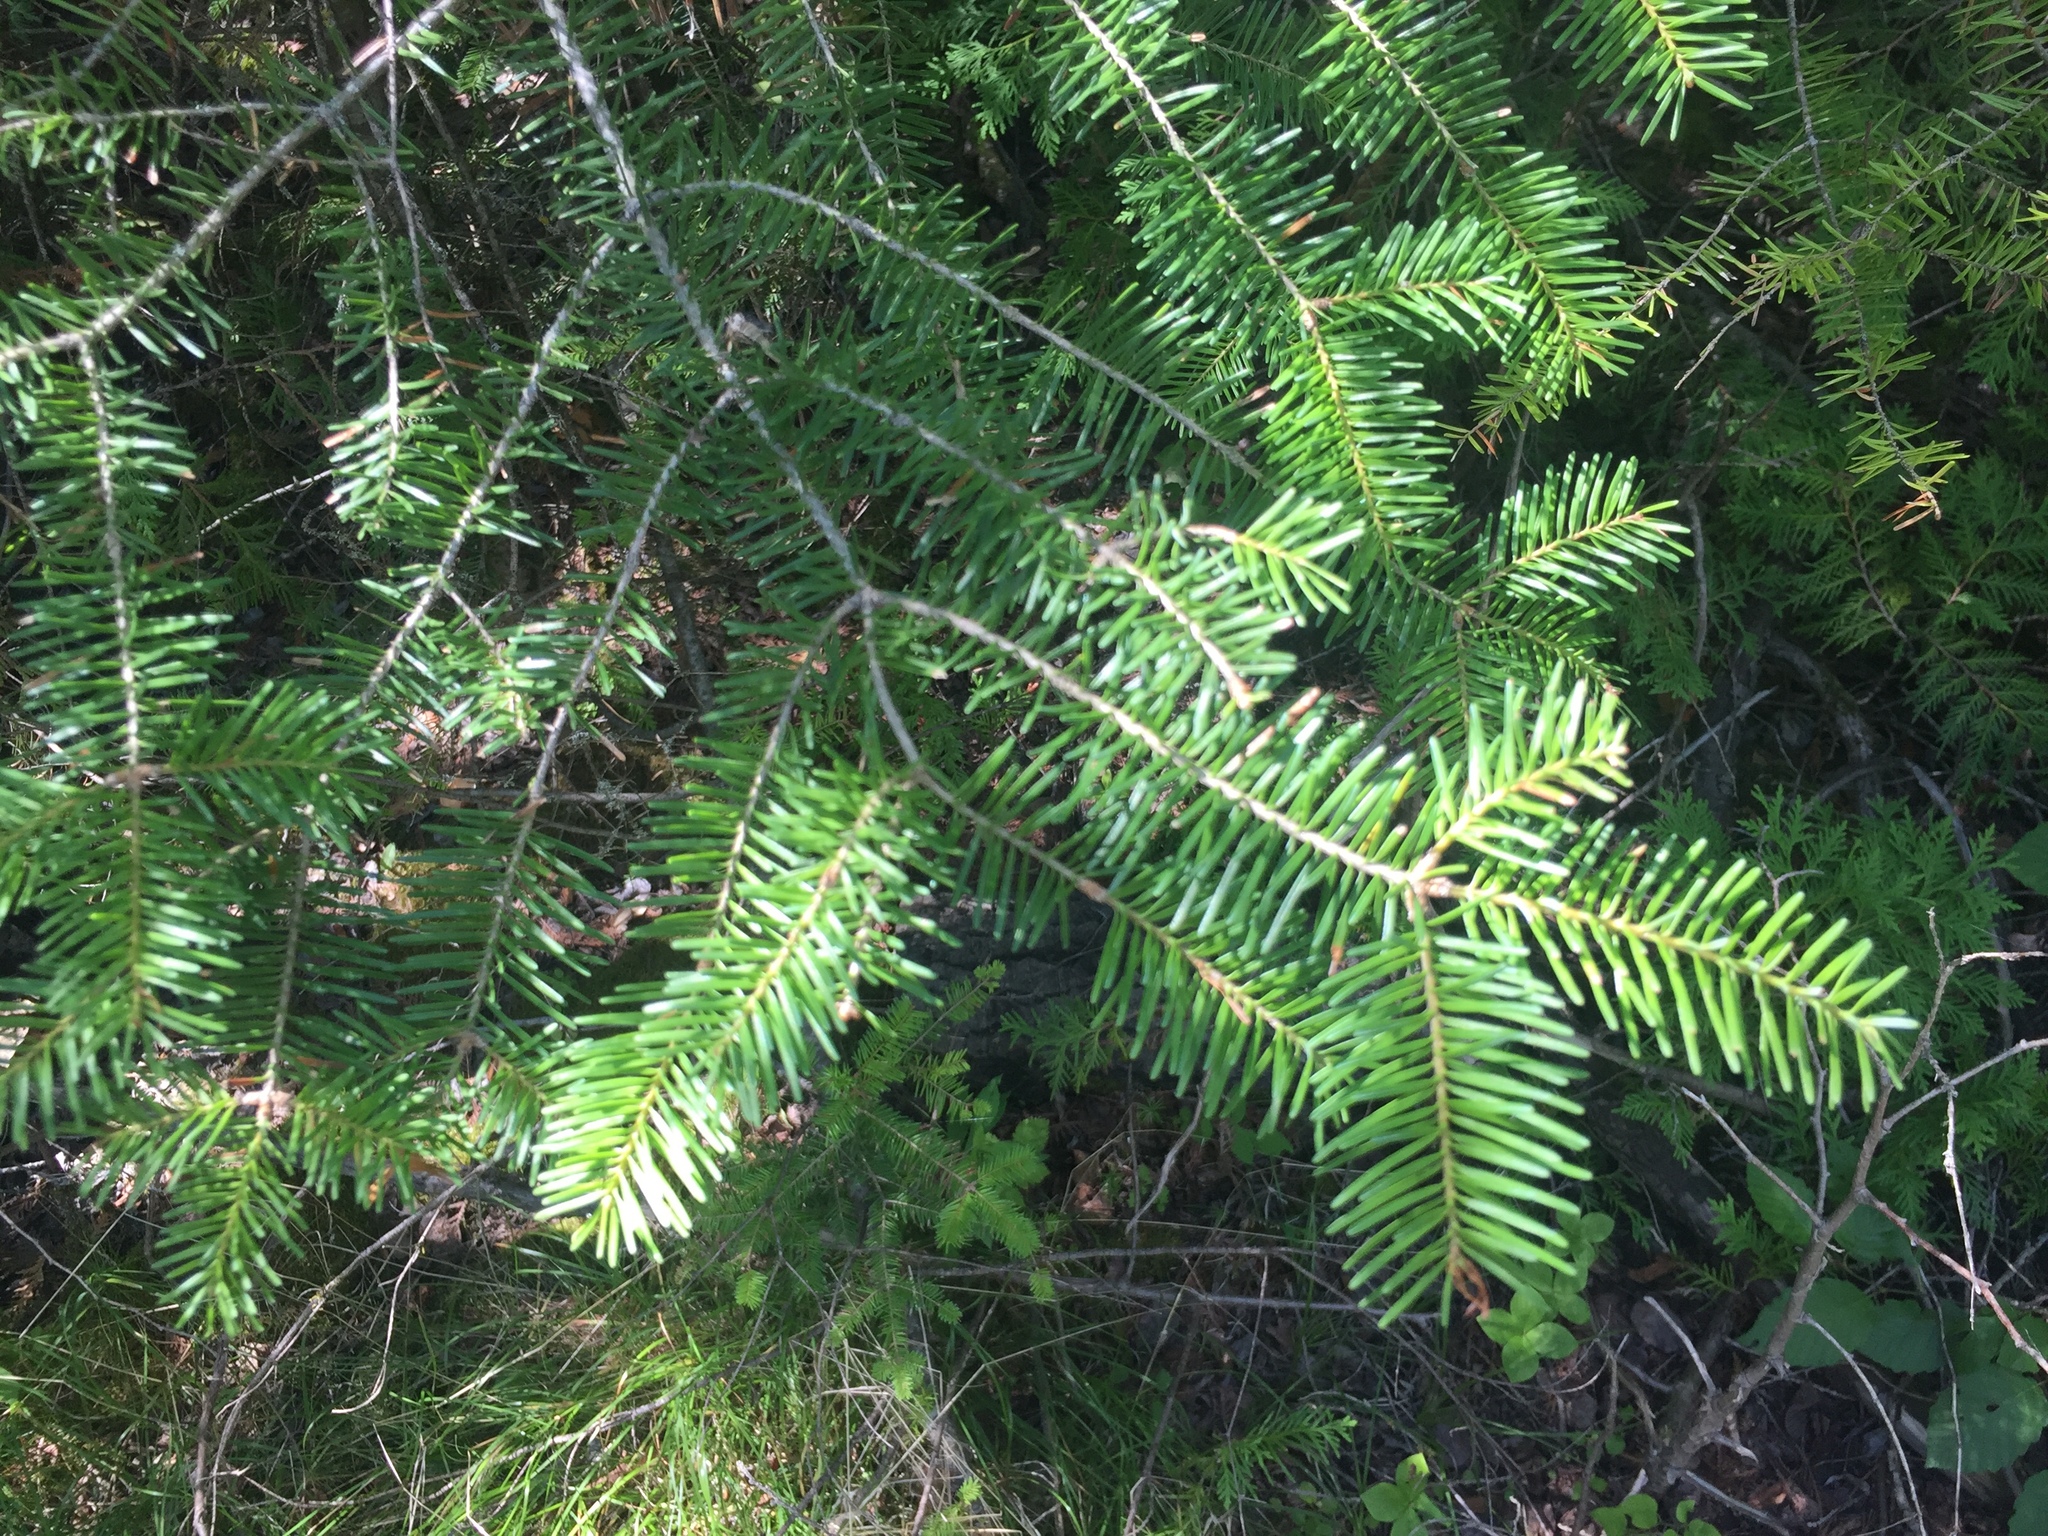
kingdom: Plantae
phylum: Tracheophyta
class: Pinopsida
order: Pinales
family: Pinaceae
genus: Abies
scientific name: Abies balsamea
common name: Balsam fir
